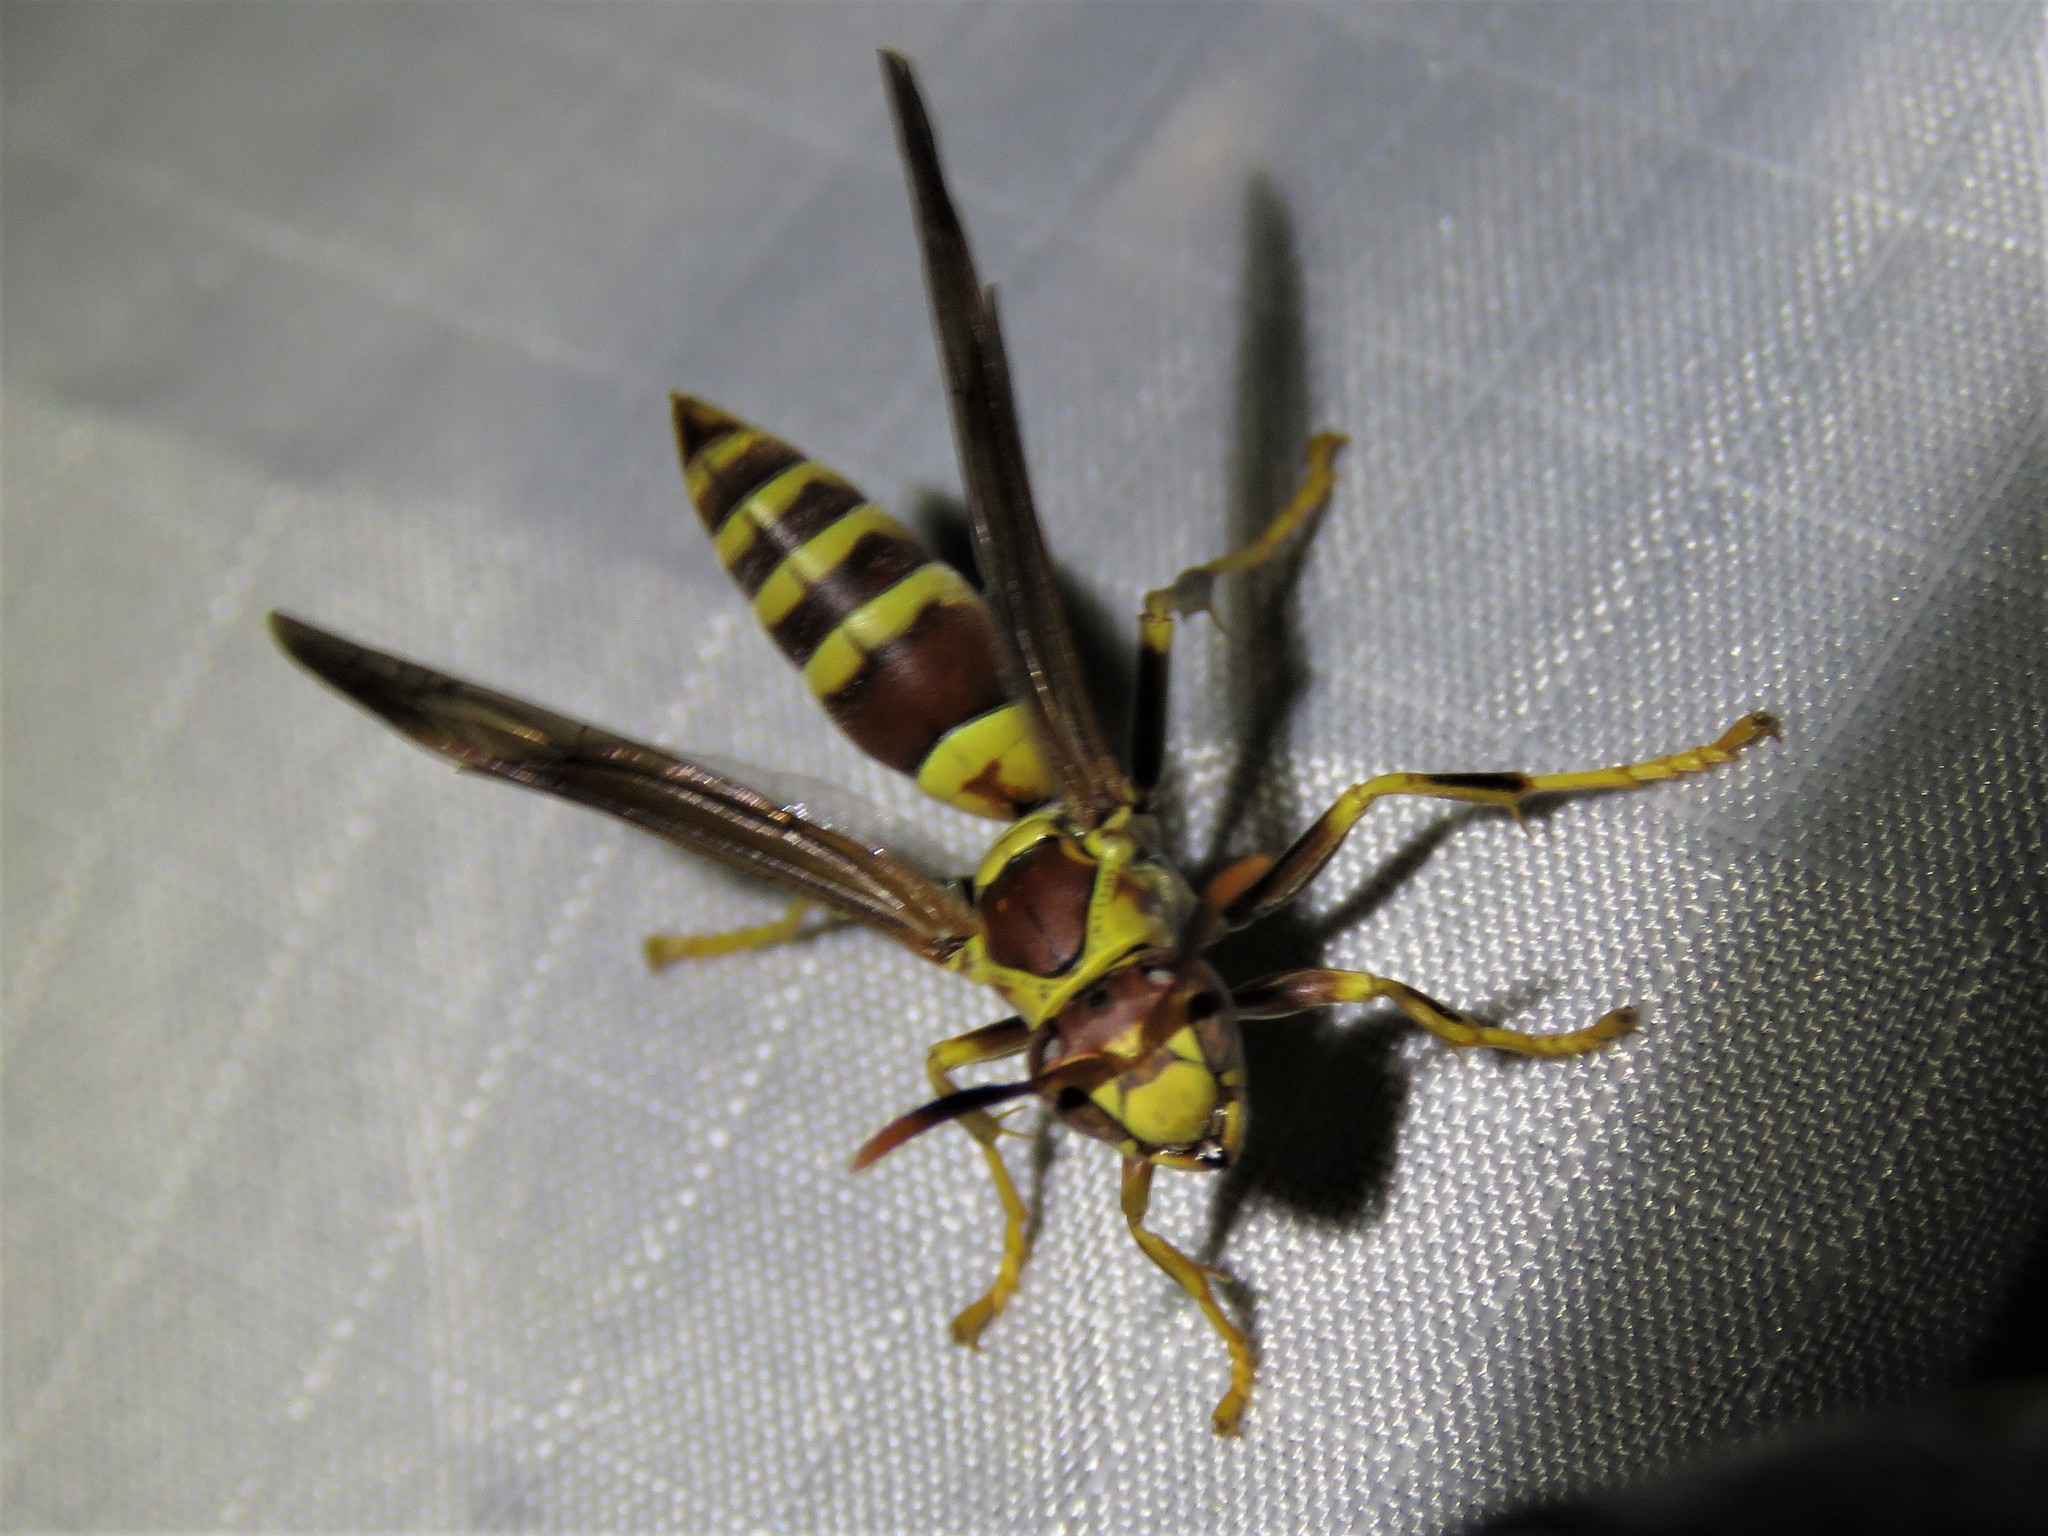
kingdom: Animalia
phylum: Arthropoda
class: Insecta
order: Hymenoptera
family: Eumenidae
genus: Polistes
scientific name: Polistes exclamans
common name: Paper wasp
